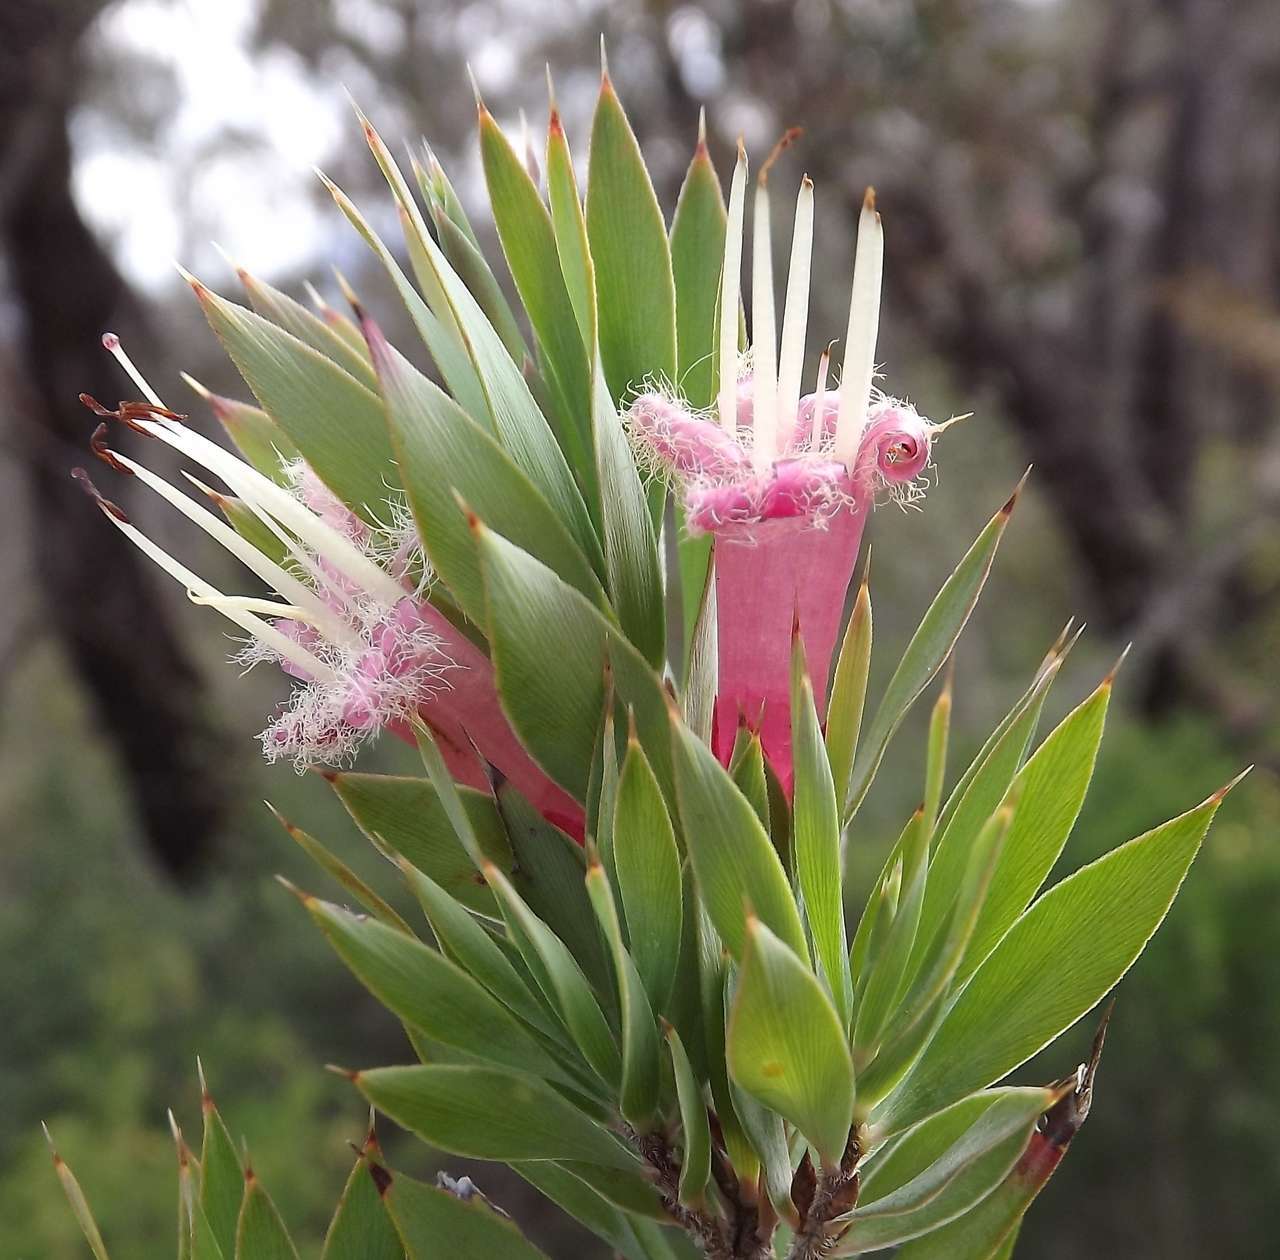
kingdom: Plantae
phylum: Tracheophyta
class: Magnoliopsida
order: Ericales
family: Ericaceae
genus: Styphelia
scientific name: Styphelia adscendens
